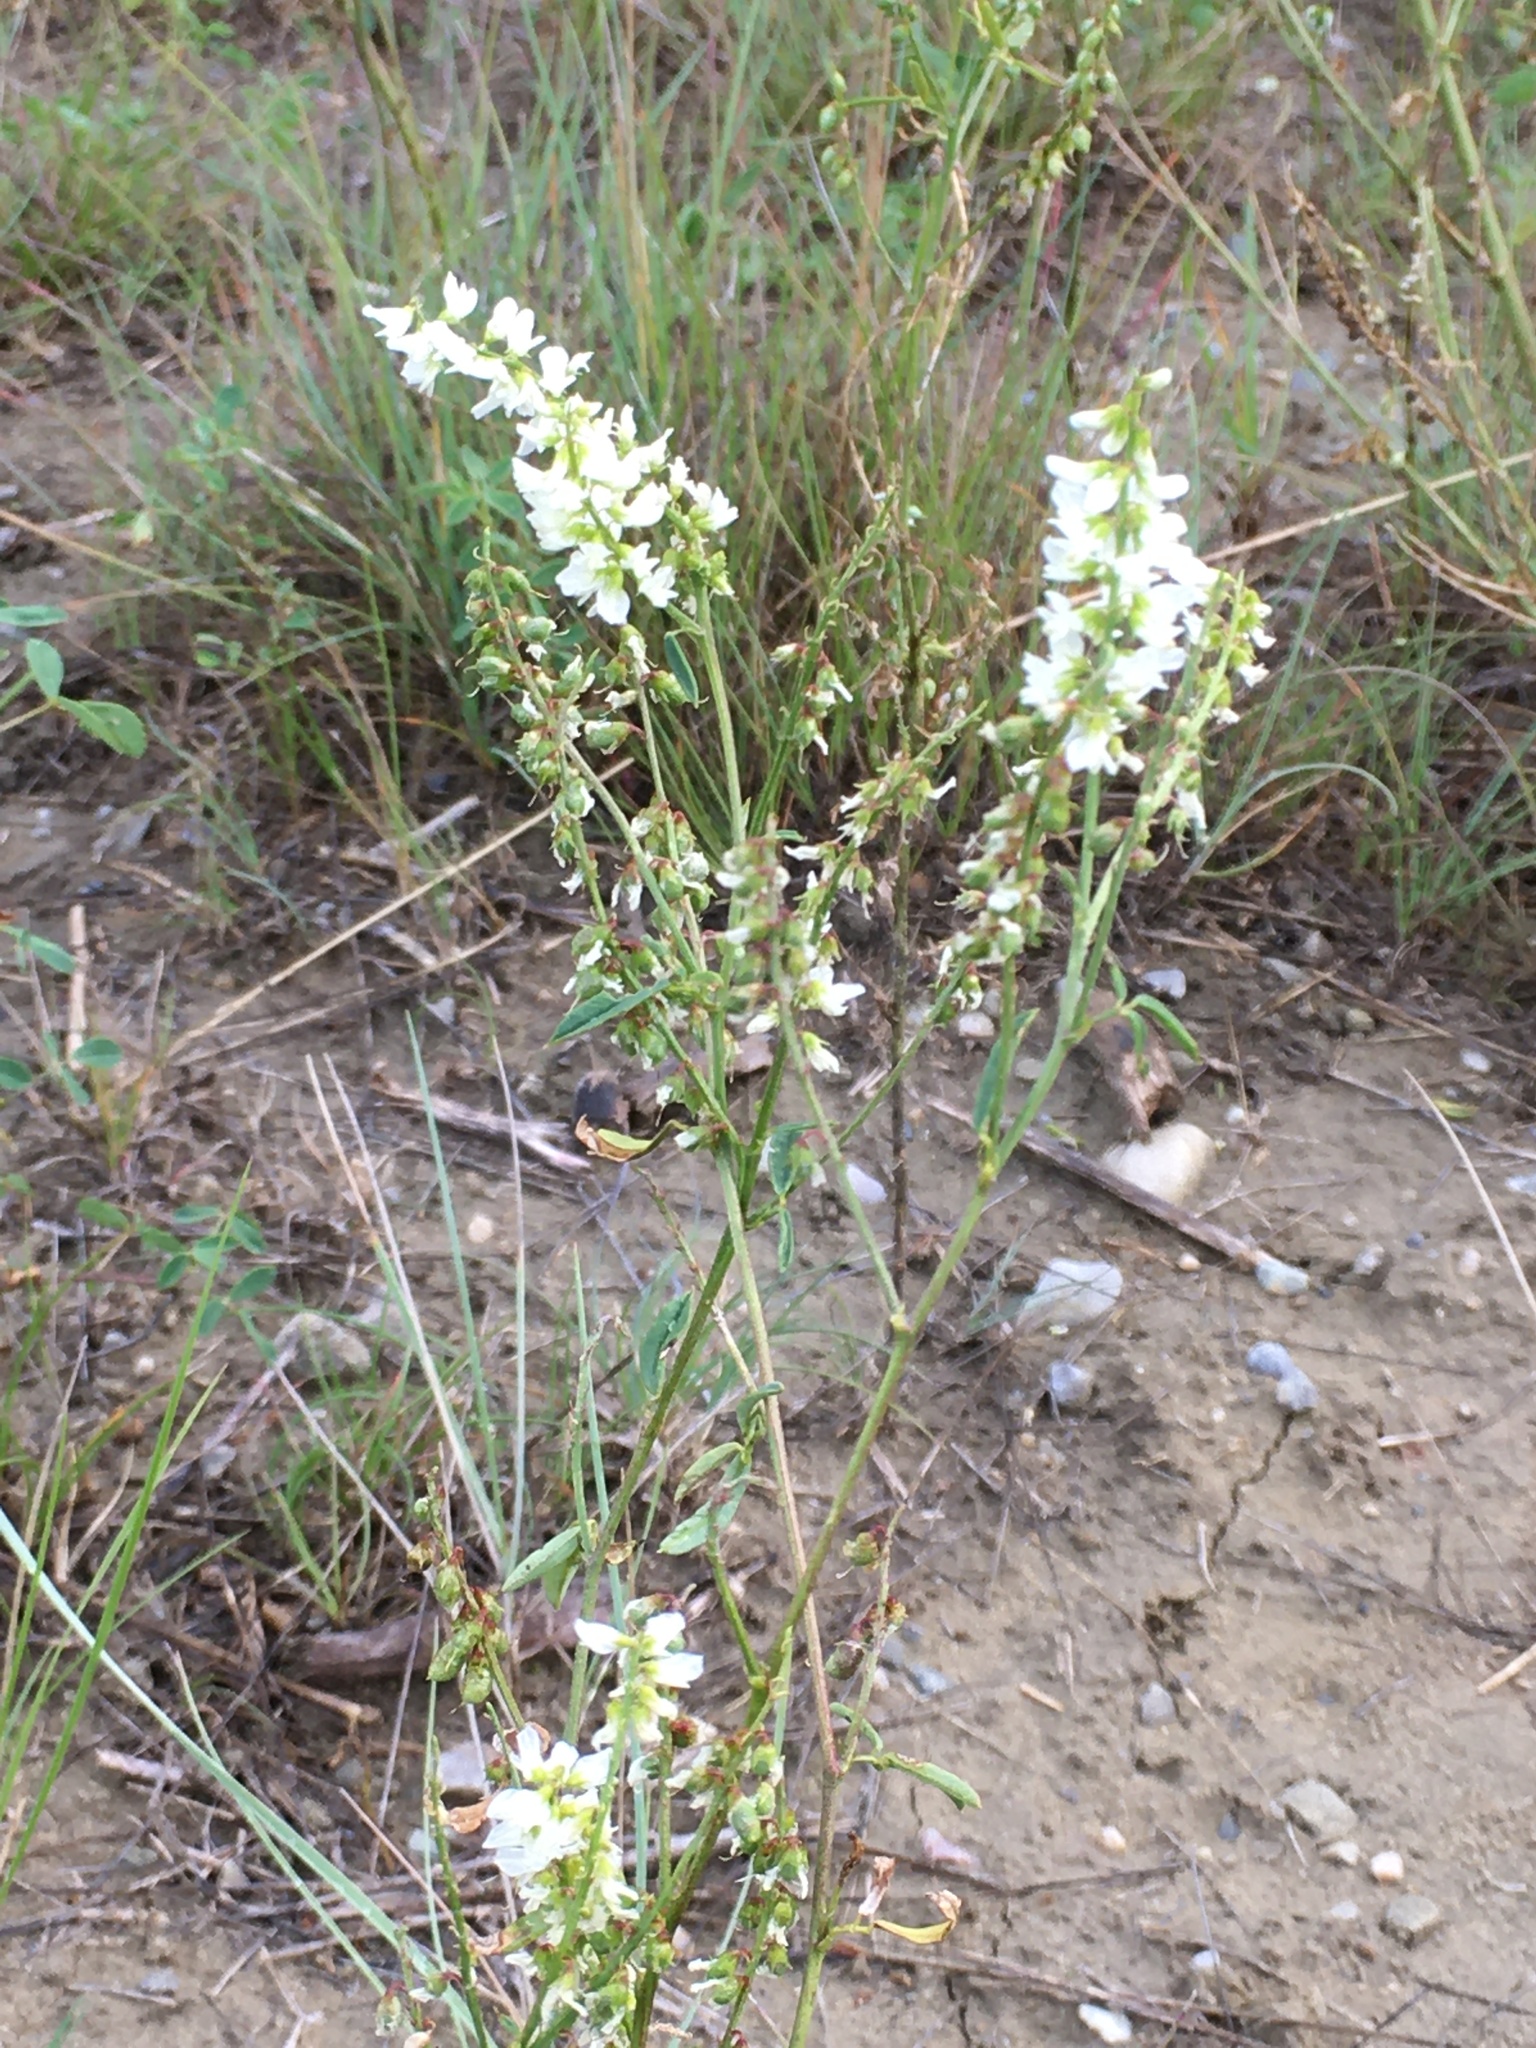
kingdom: Plantae
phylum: Tracheophyta
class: Magnoliopsida
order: Fabales
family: Fabaceae
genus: Melilotus
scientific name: Melilotus albus
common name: White melilot
